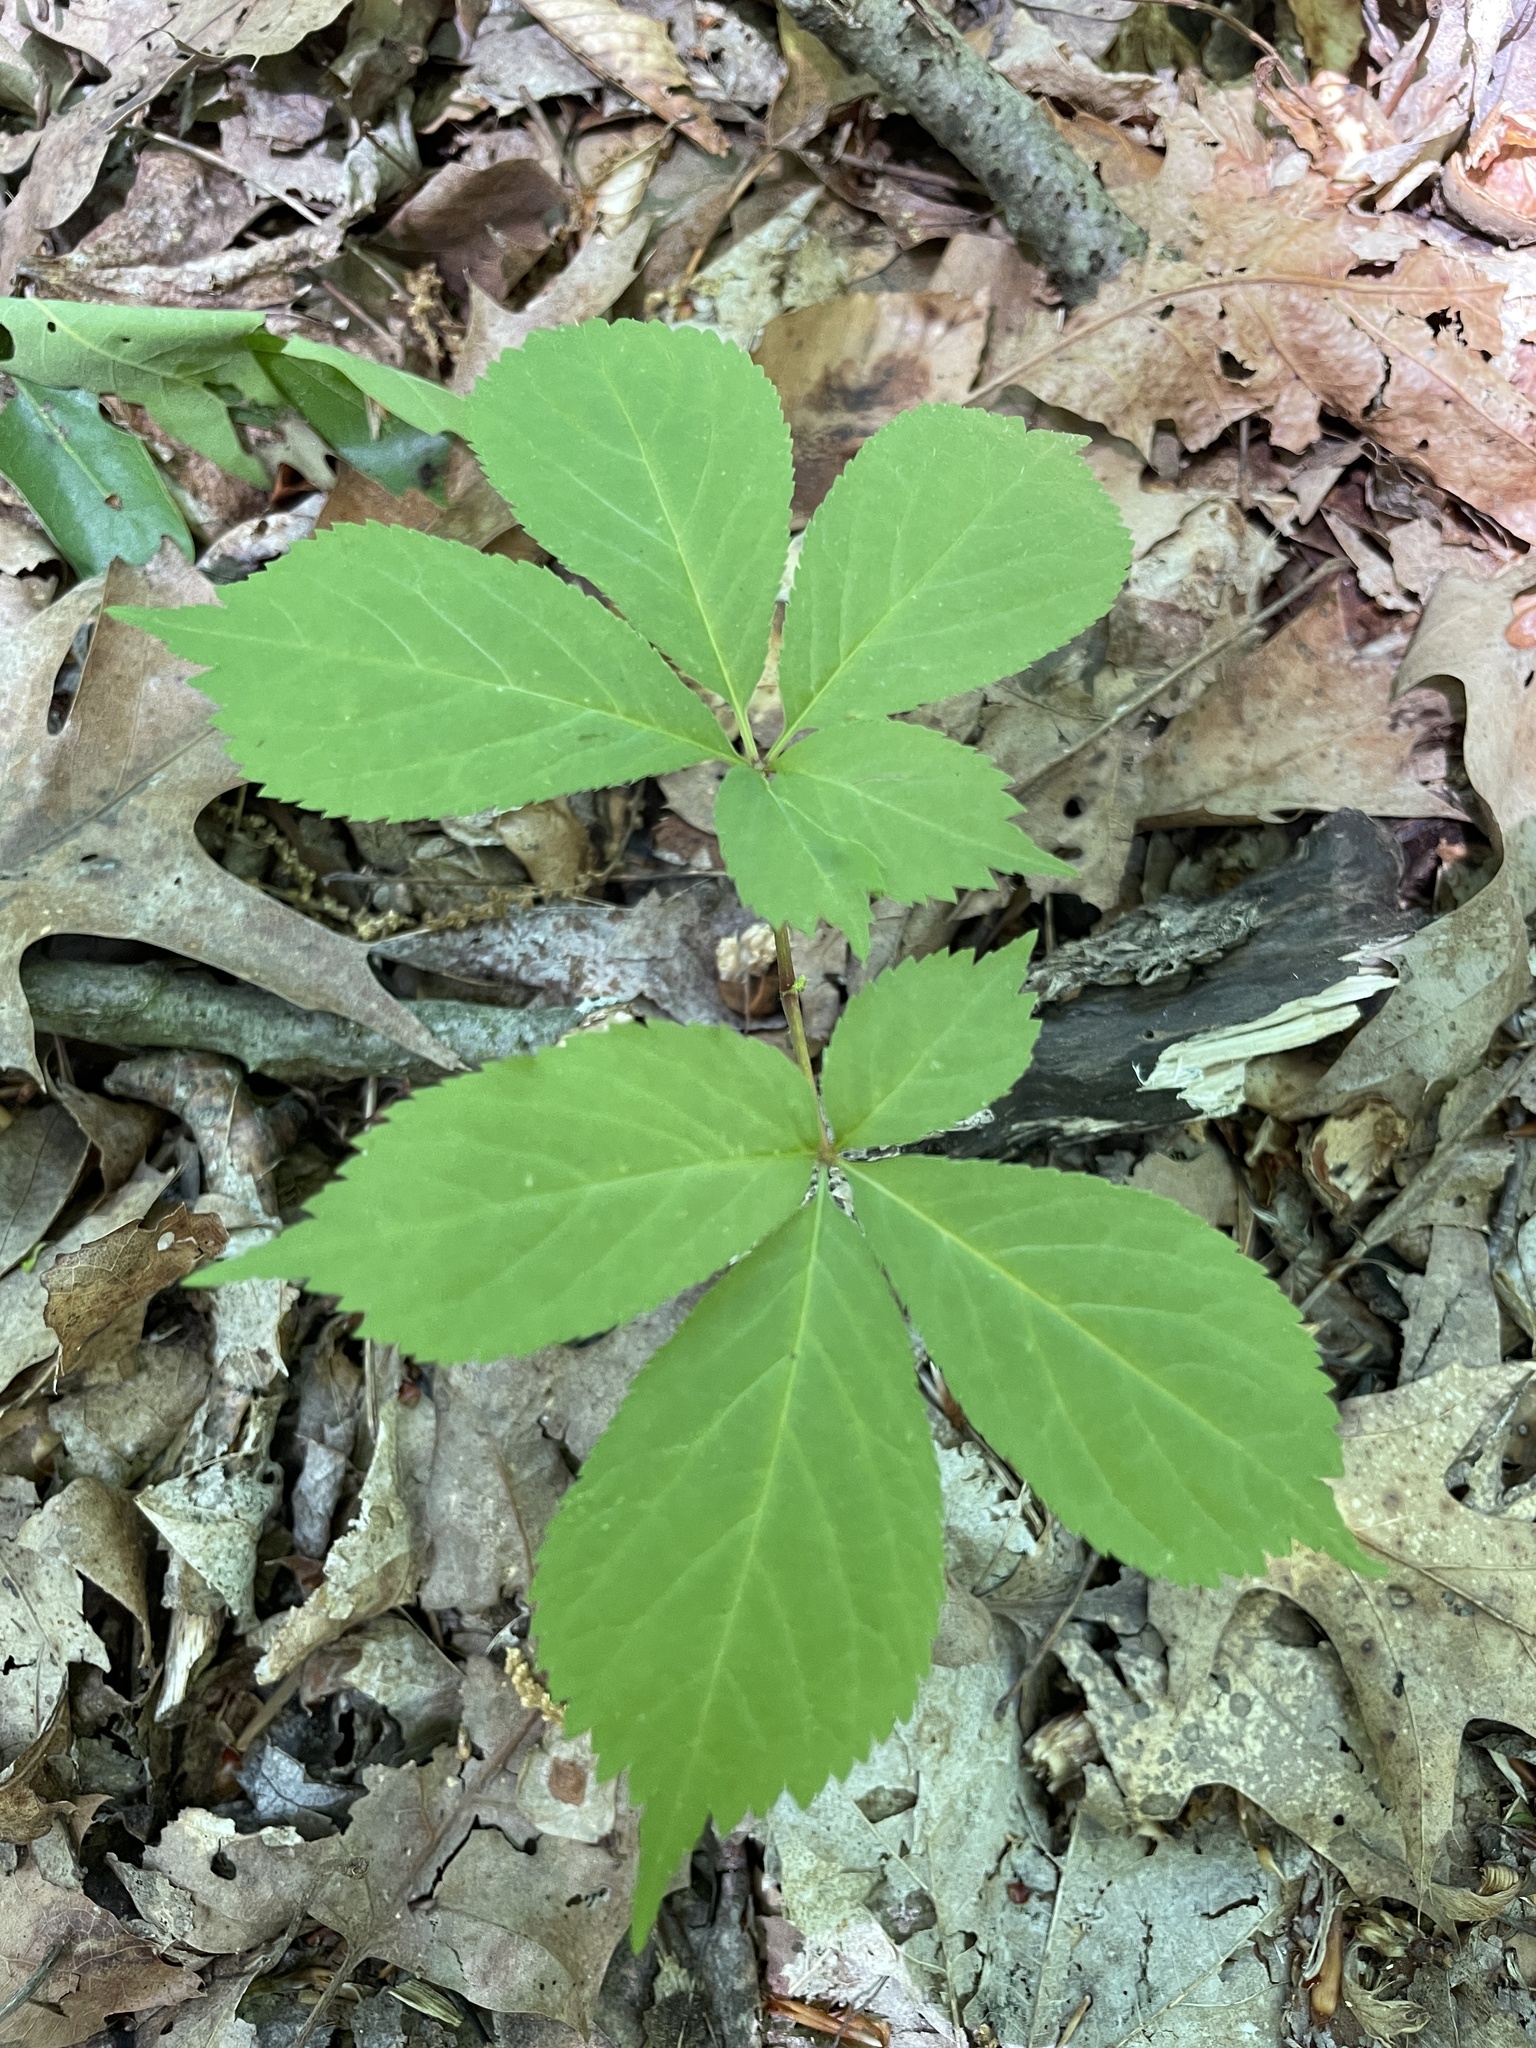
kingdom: Plantae
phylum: Tracheophyta
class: Magnoliopsida
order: Apiales
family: Araliaceae
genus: Panax
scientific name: Panax quinquefolius
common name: American ginseng
